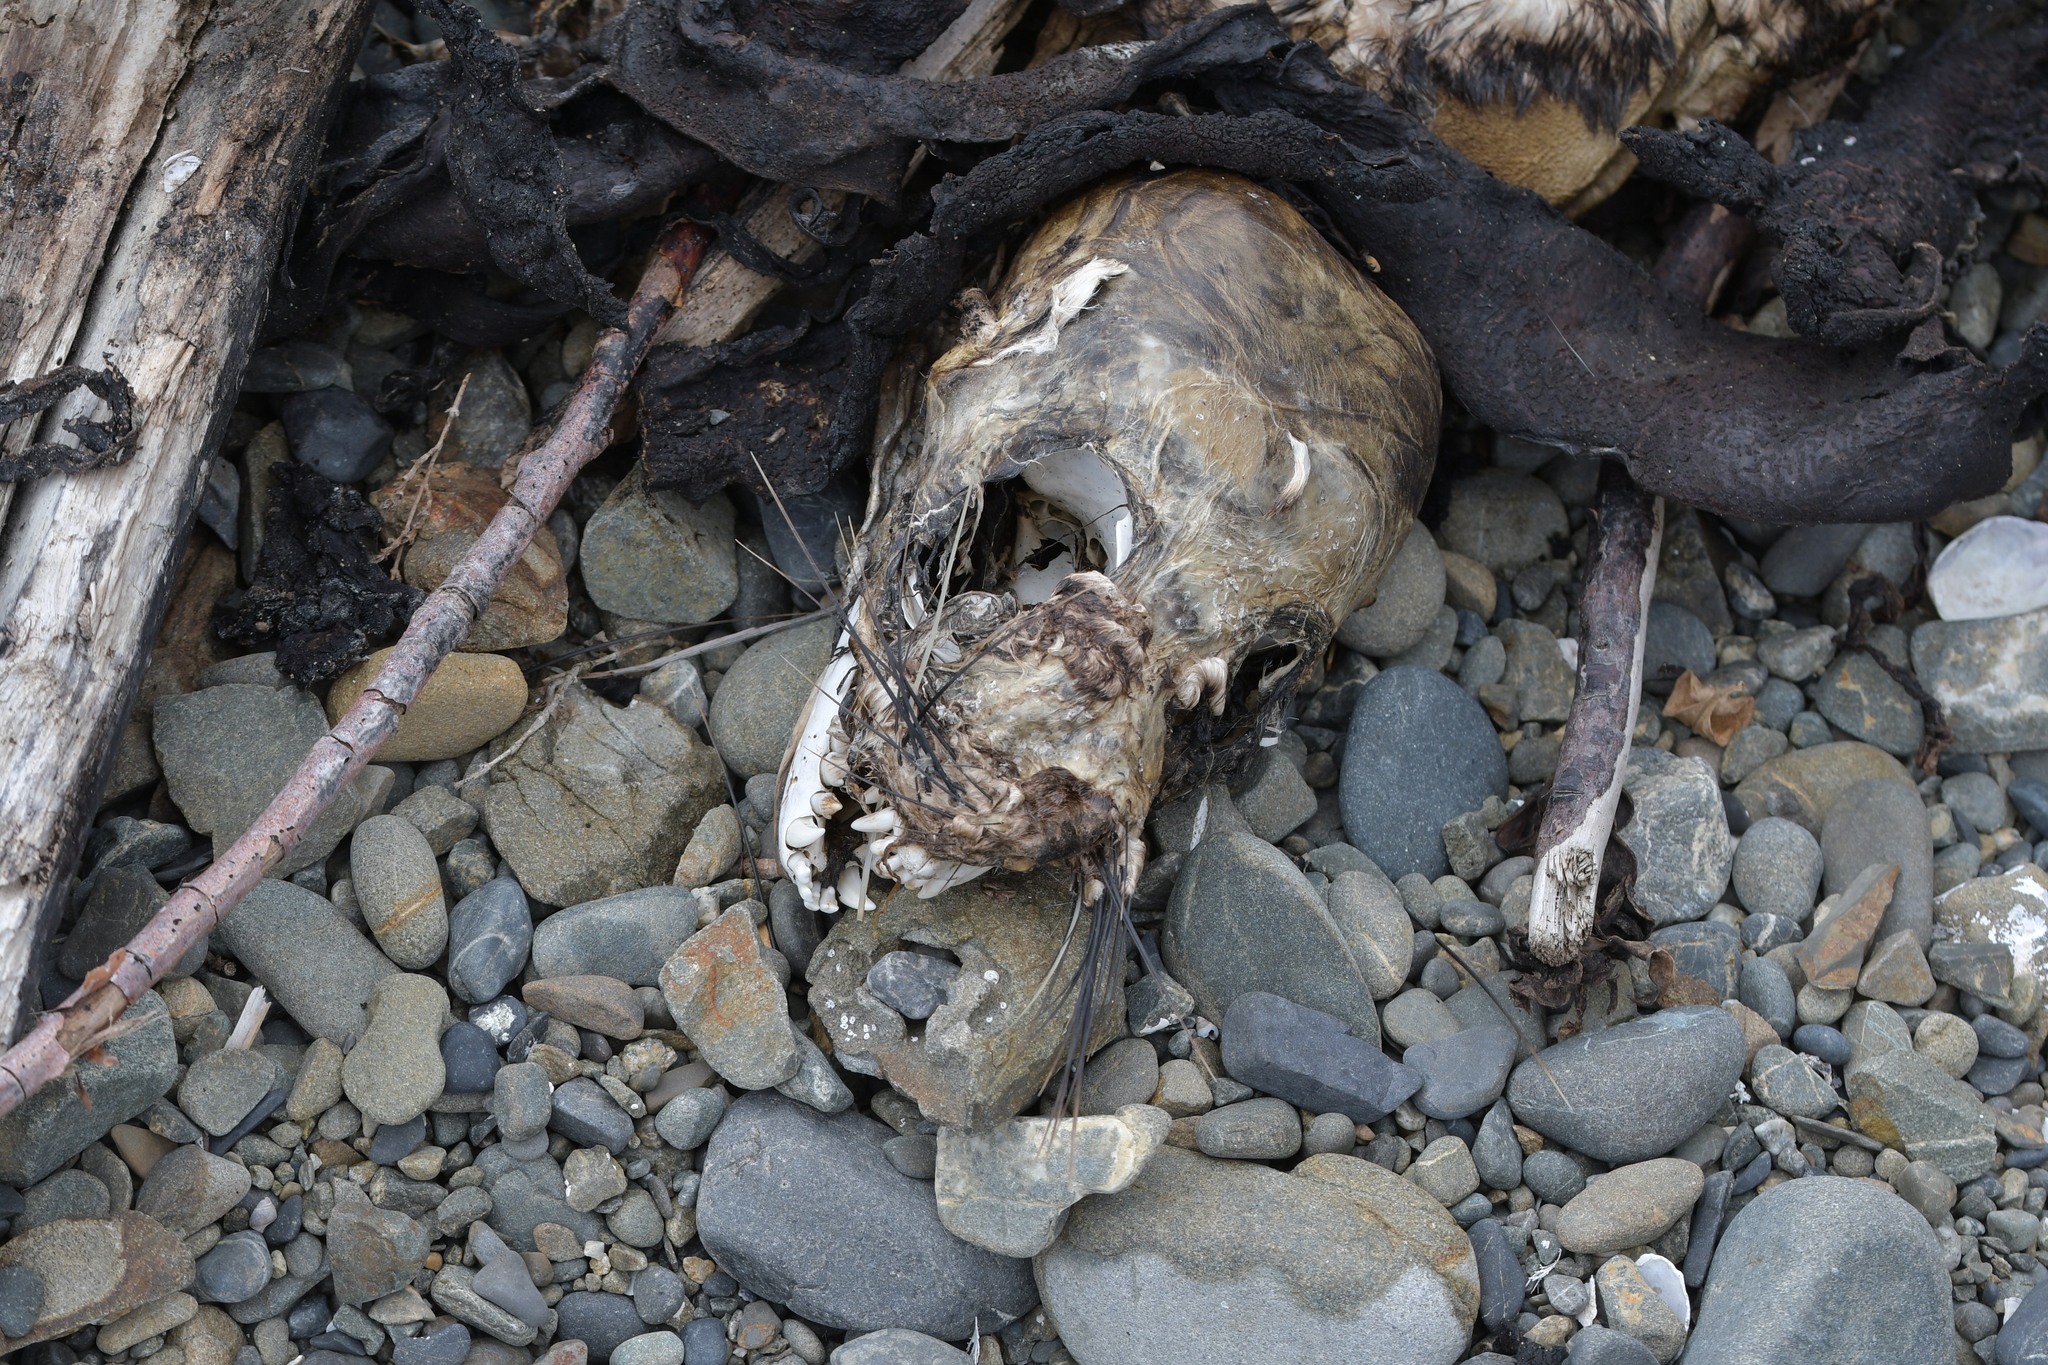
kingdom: Animalia
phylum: Chordata
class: Mammalia
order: Carnivora
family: Otariidae
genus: Arctocephalus
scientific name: Arctocephalus forsteri
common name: New zealand fur seal
